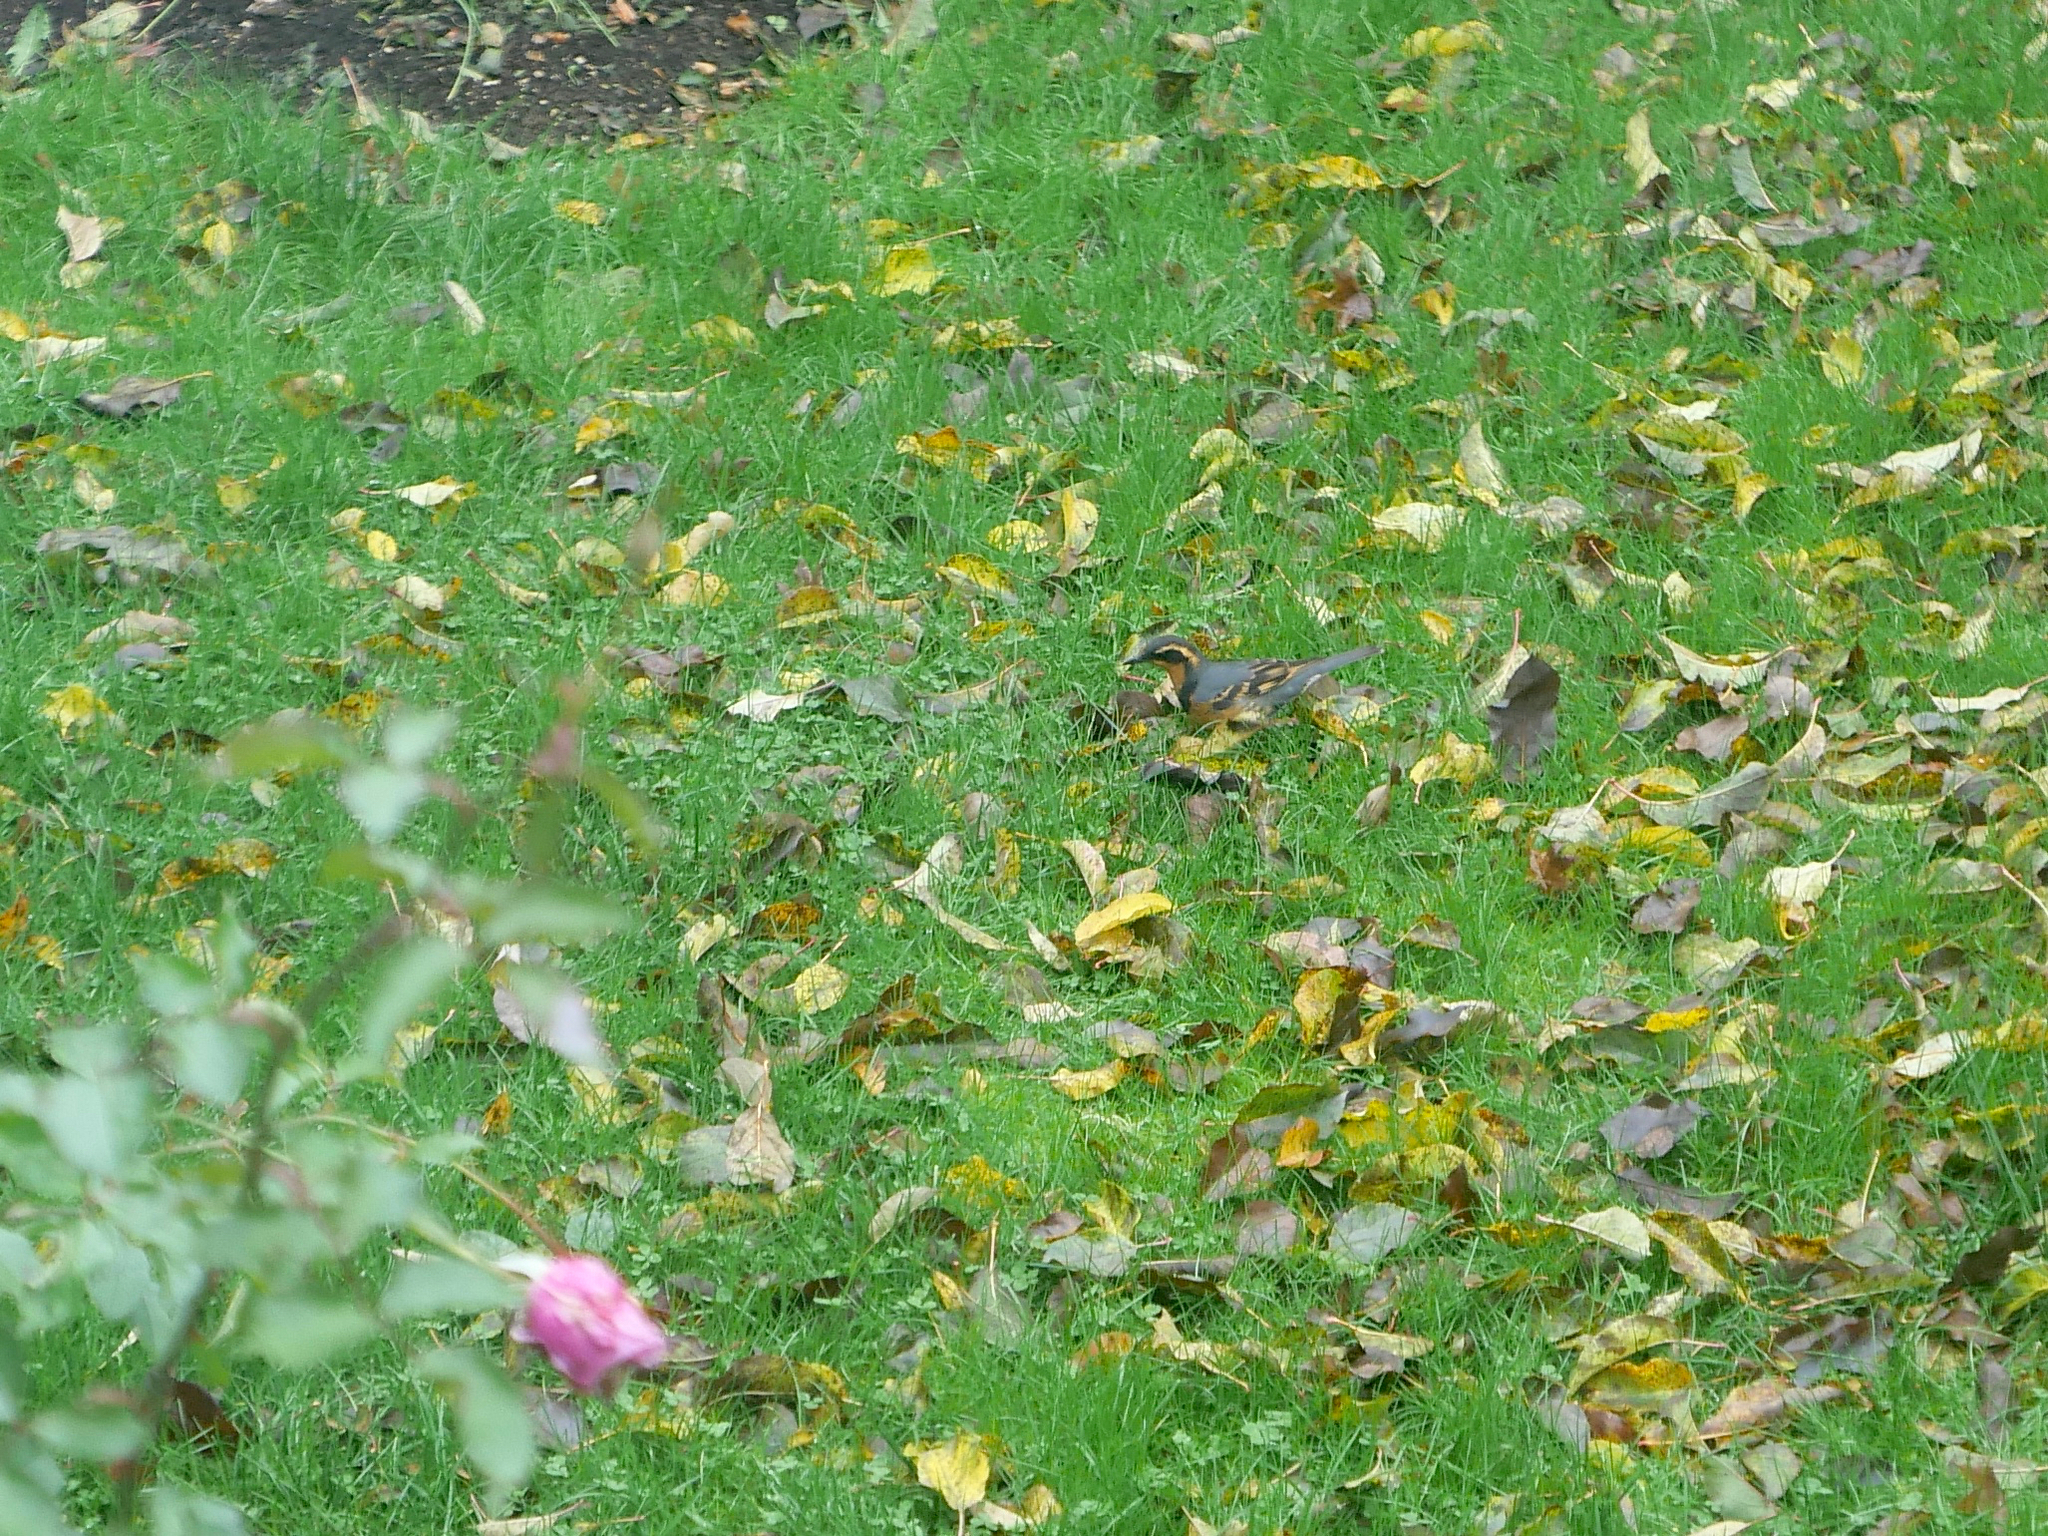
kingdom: Animalia
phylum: Chordata
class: Aves
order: Passeriformes
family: Turdidae
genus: Ixoreus
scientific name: Ixoreus naevius
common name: Varied thrush
